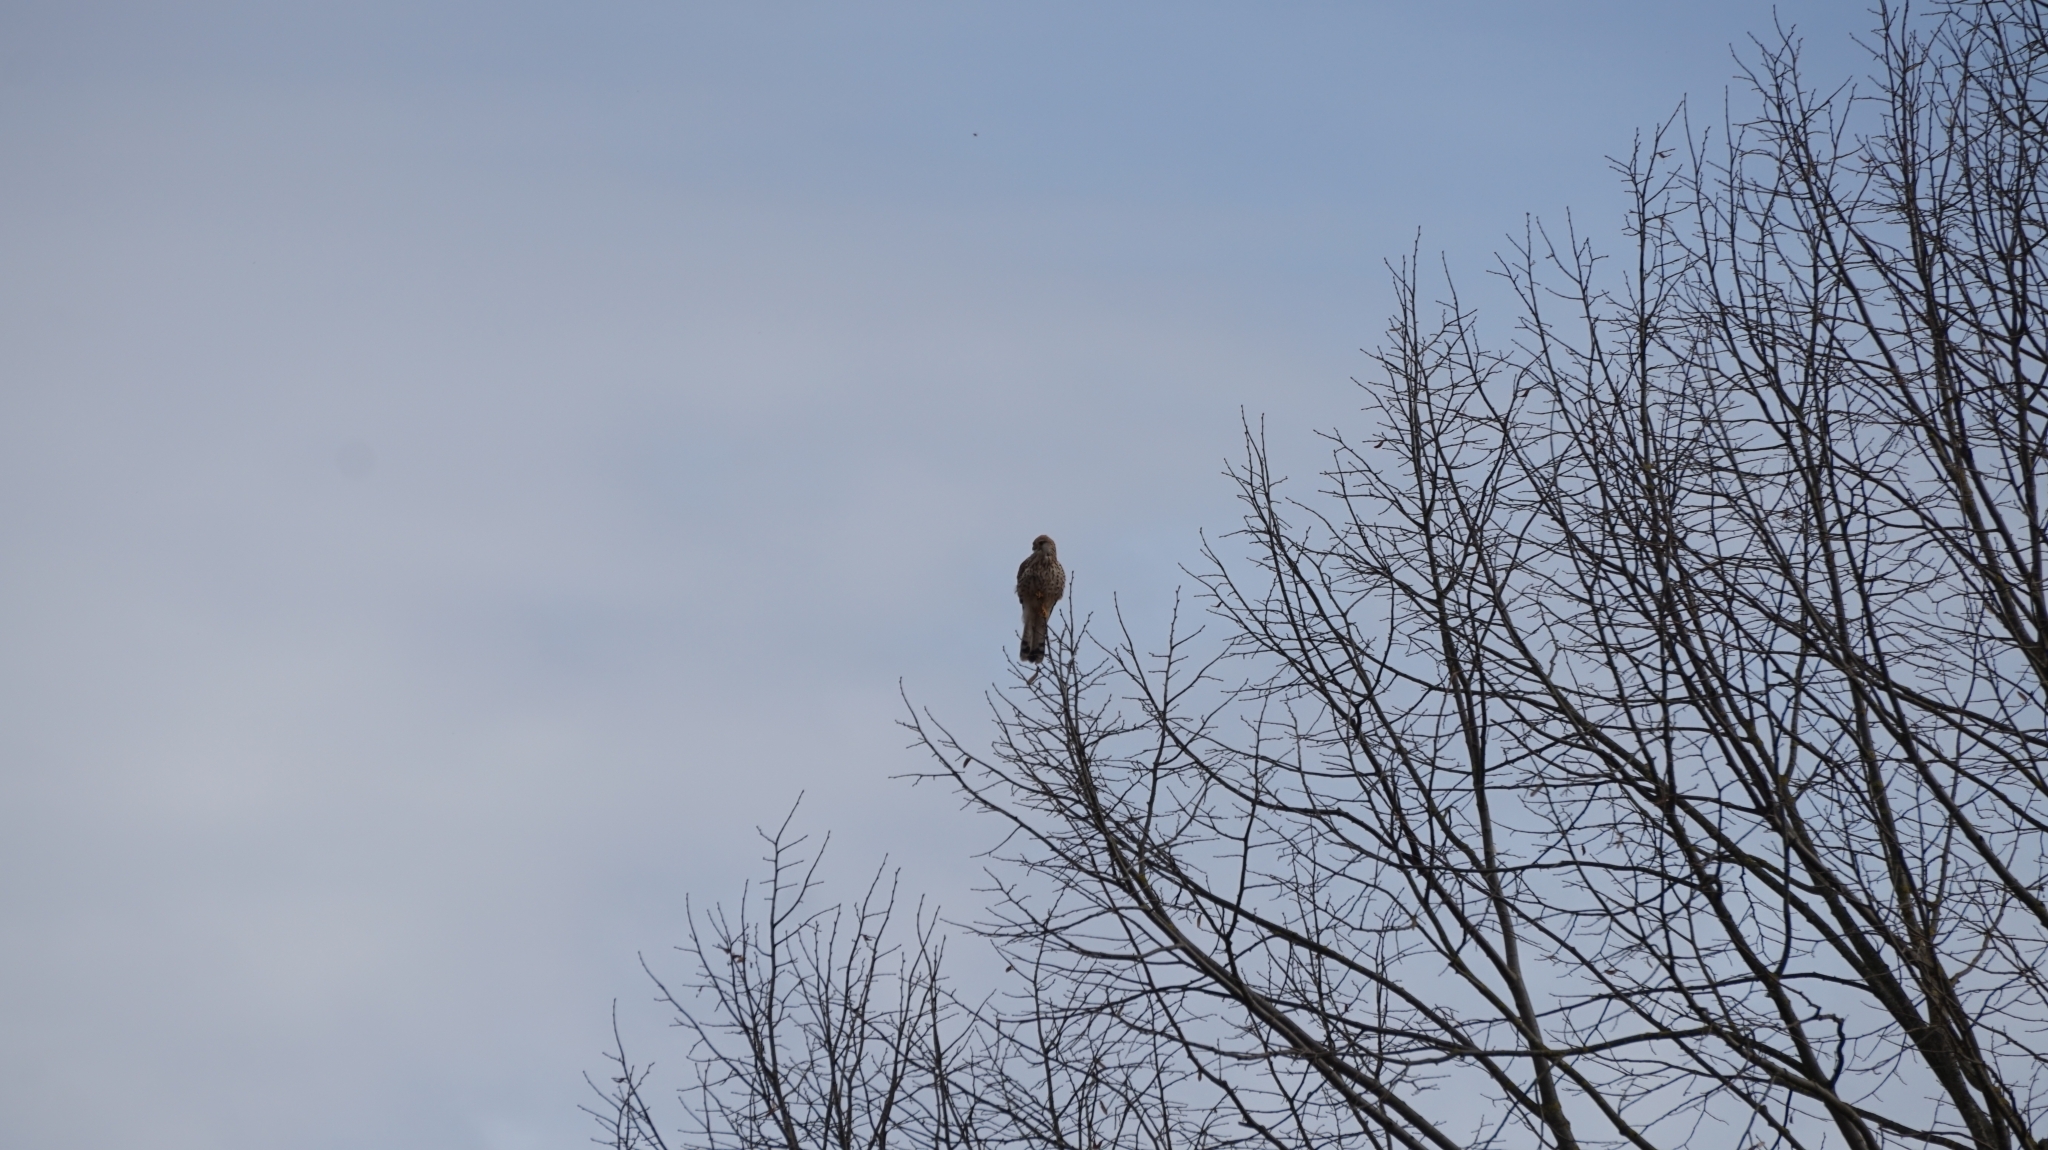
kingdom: Animalia
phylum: Chordata
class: Aves
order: Falconiformes
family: Falconidae
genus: Falco
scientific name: Falco tinnunculus
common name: Common kestrel
